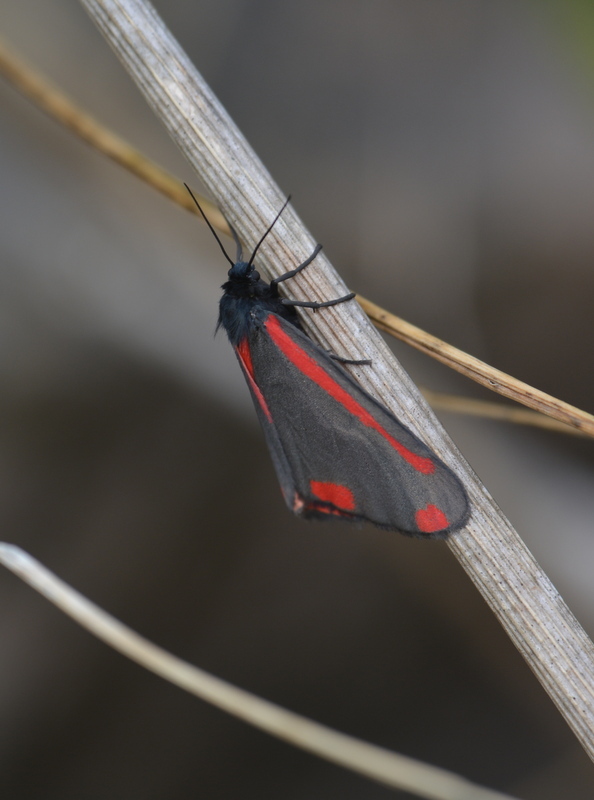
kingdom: Animalia
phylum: Arthropoda
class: Insecta
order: Lepidoptera
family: Erebidae
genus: Tyria
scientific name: Tyria jacobaeae
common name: Cinnabar
